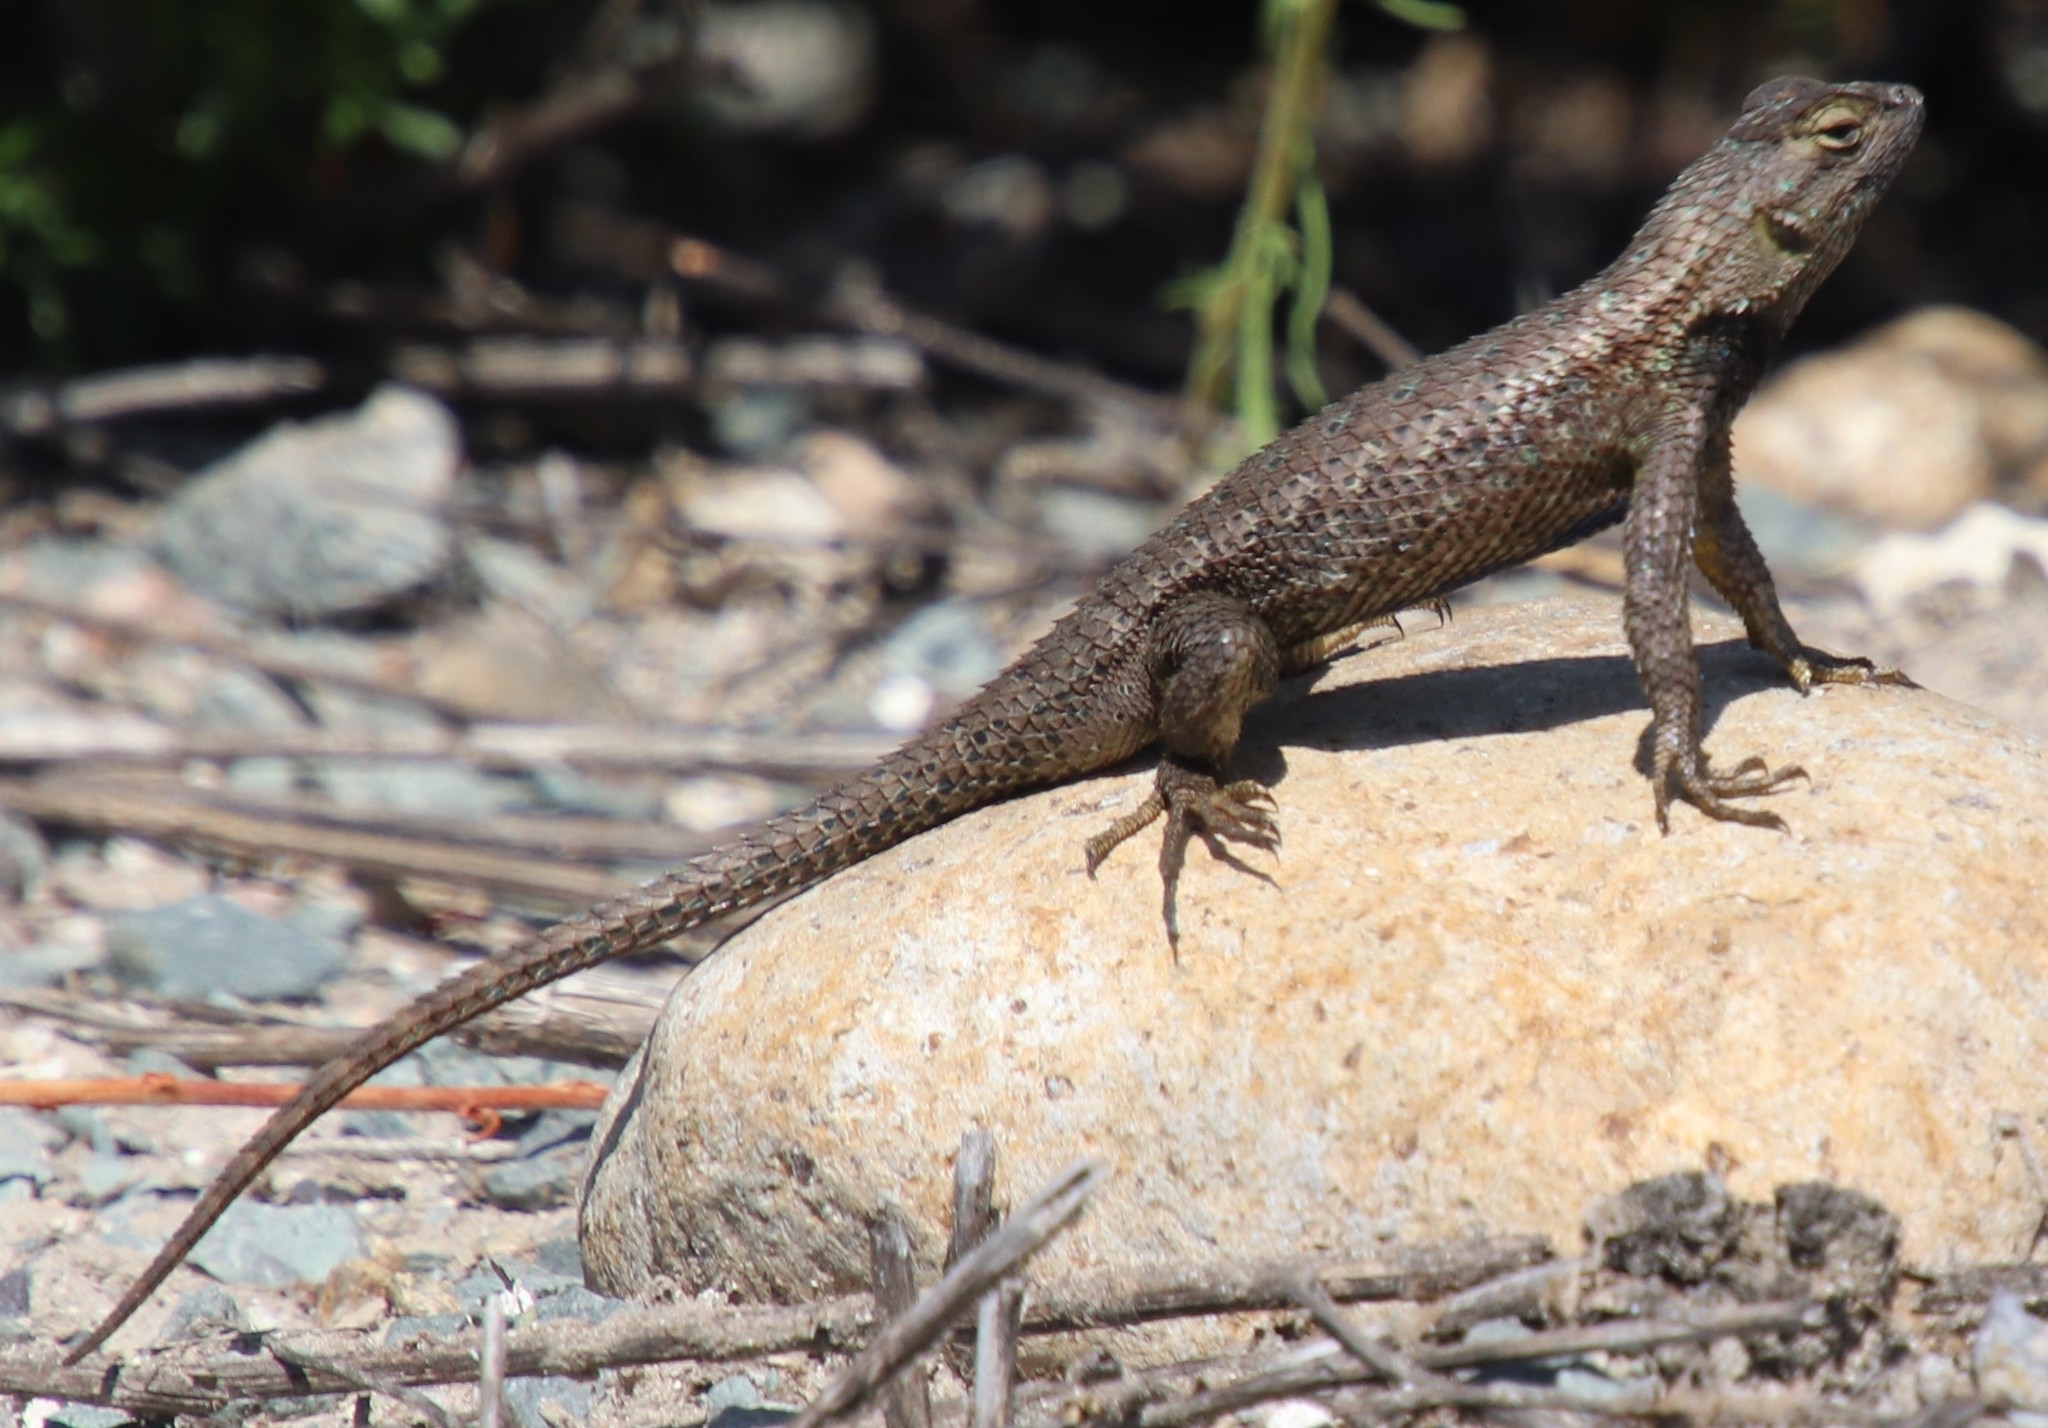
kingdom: Animalia
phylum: Chordata
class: Squamata
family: Phrynosomatidae
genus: Sceloporus
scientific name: Sceloporus occidentalis
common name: Western fence lizard
